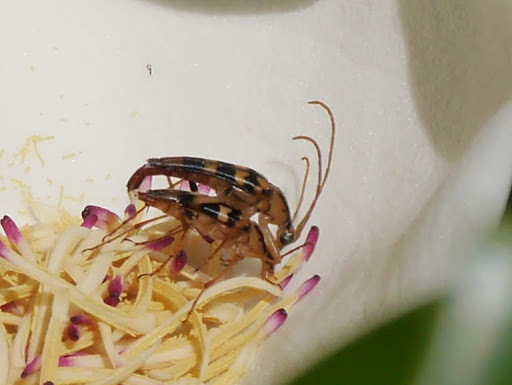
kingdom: Animalia
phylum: Arthropoda
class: Insecta
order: Coleoptera
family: Cerambycidae
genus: Strangalia
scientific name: Strangalia luteicornis
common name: Yellow-horned flower longhorn beetle
